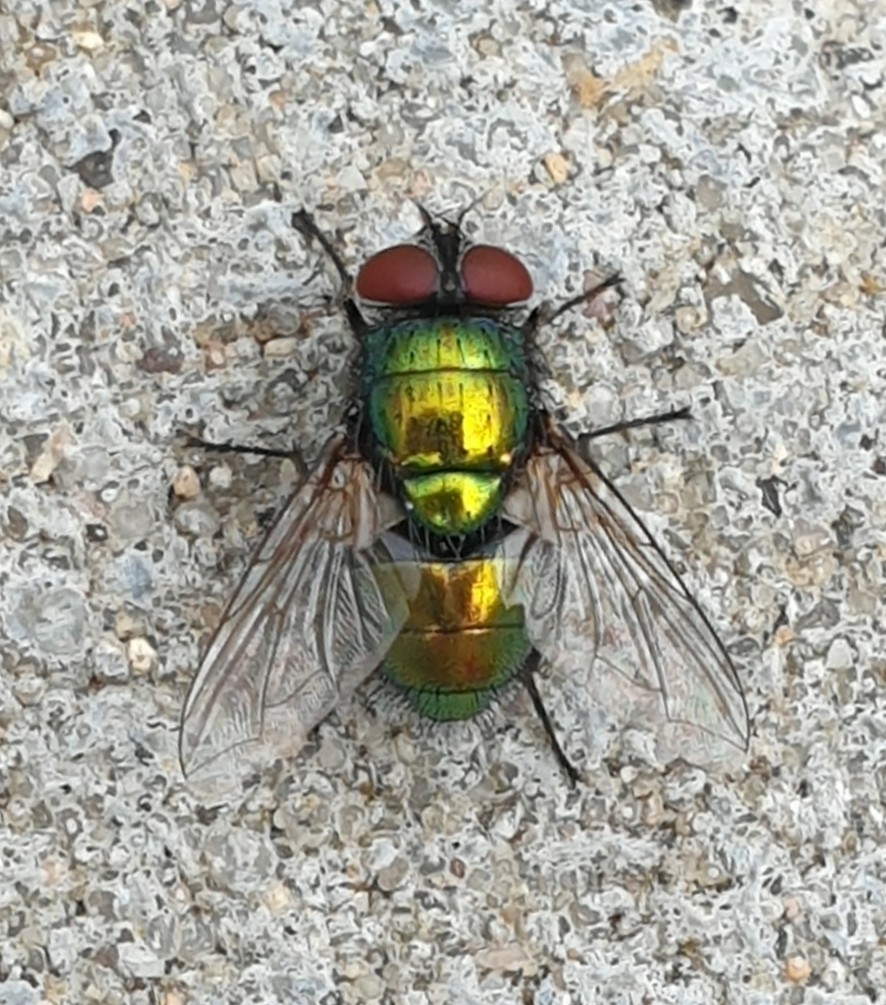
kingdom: Animalia
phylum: Arthropoda
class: Insecta
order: Diptera
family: Calliphoridae
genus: Lucilia
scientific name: Lucilia
